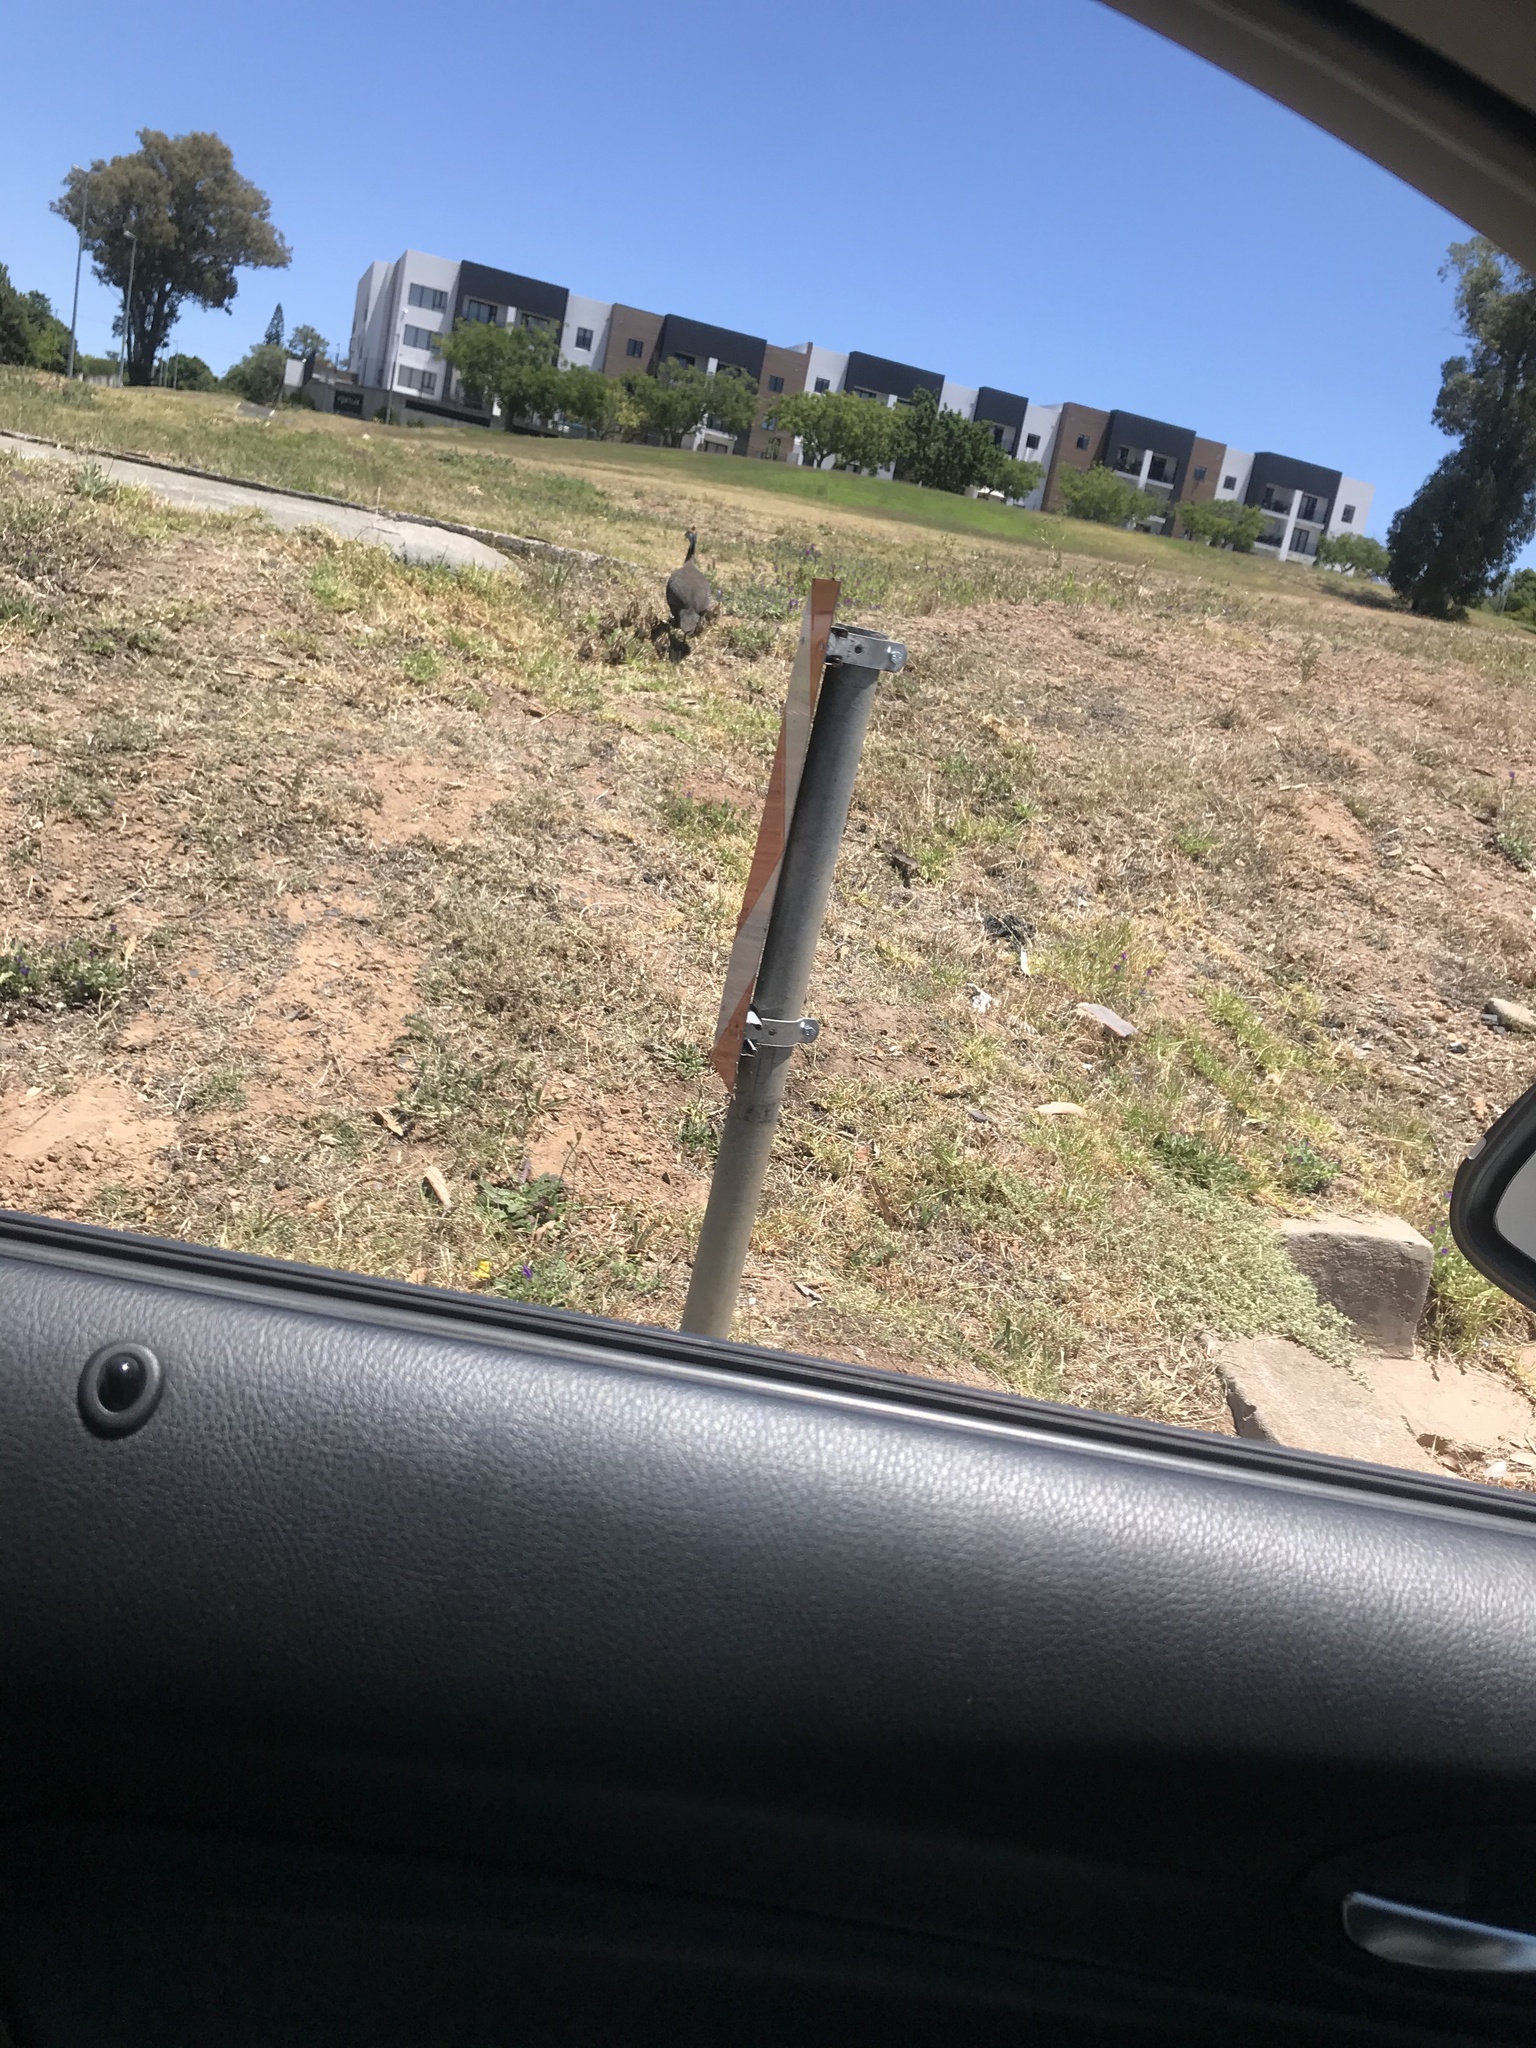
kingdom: Animalia
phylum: Chordata
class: Aves
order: Galliformes
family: Numididae
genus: Numida
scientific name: Numida meleagris
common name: Helmeted guineafowl
